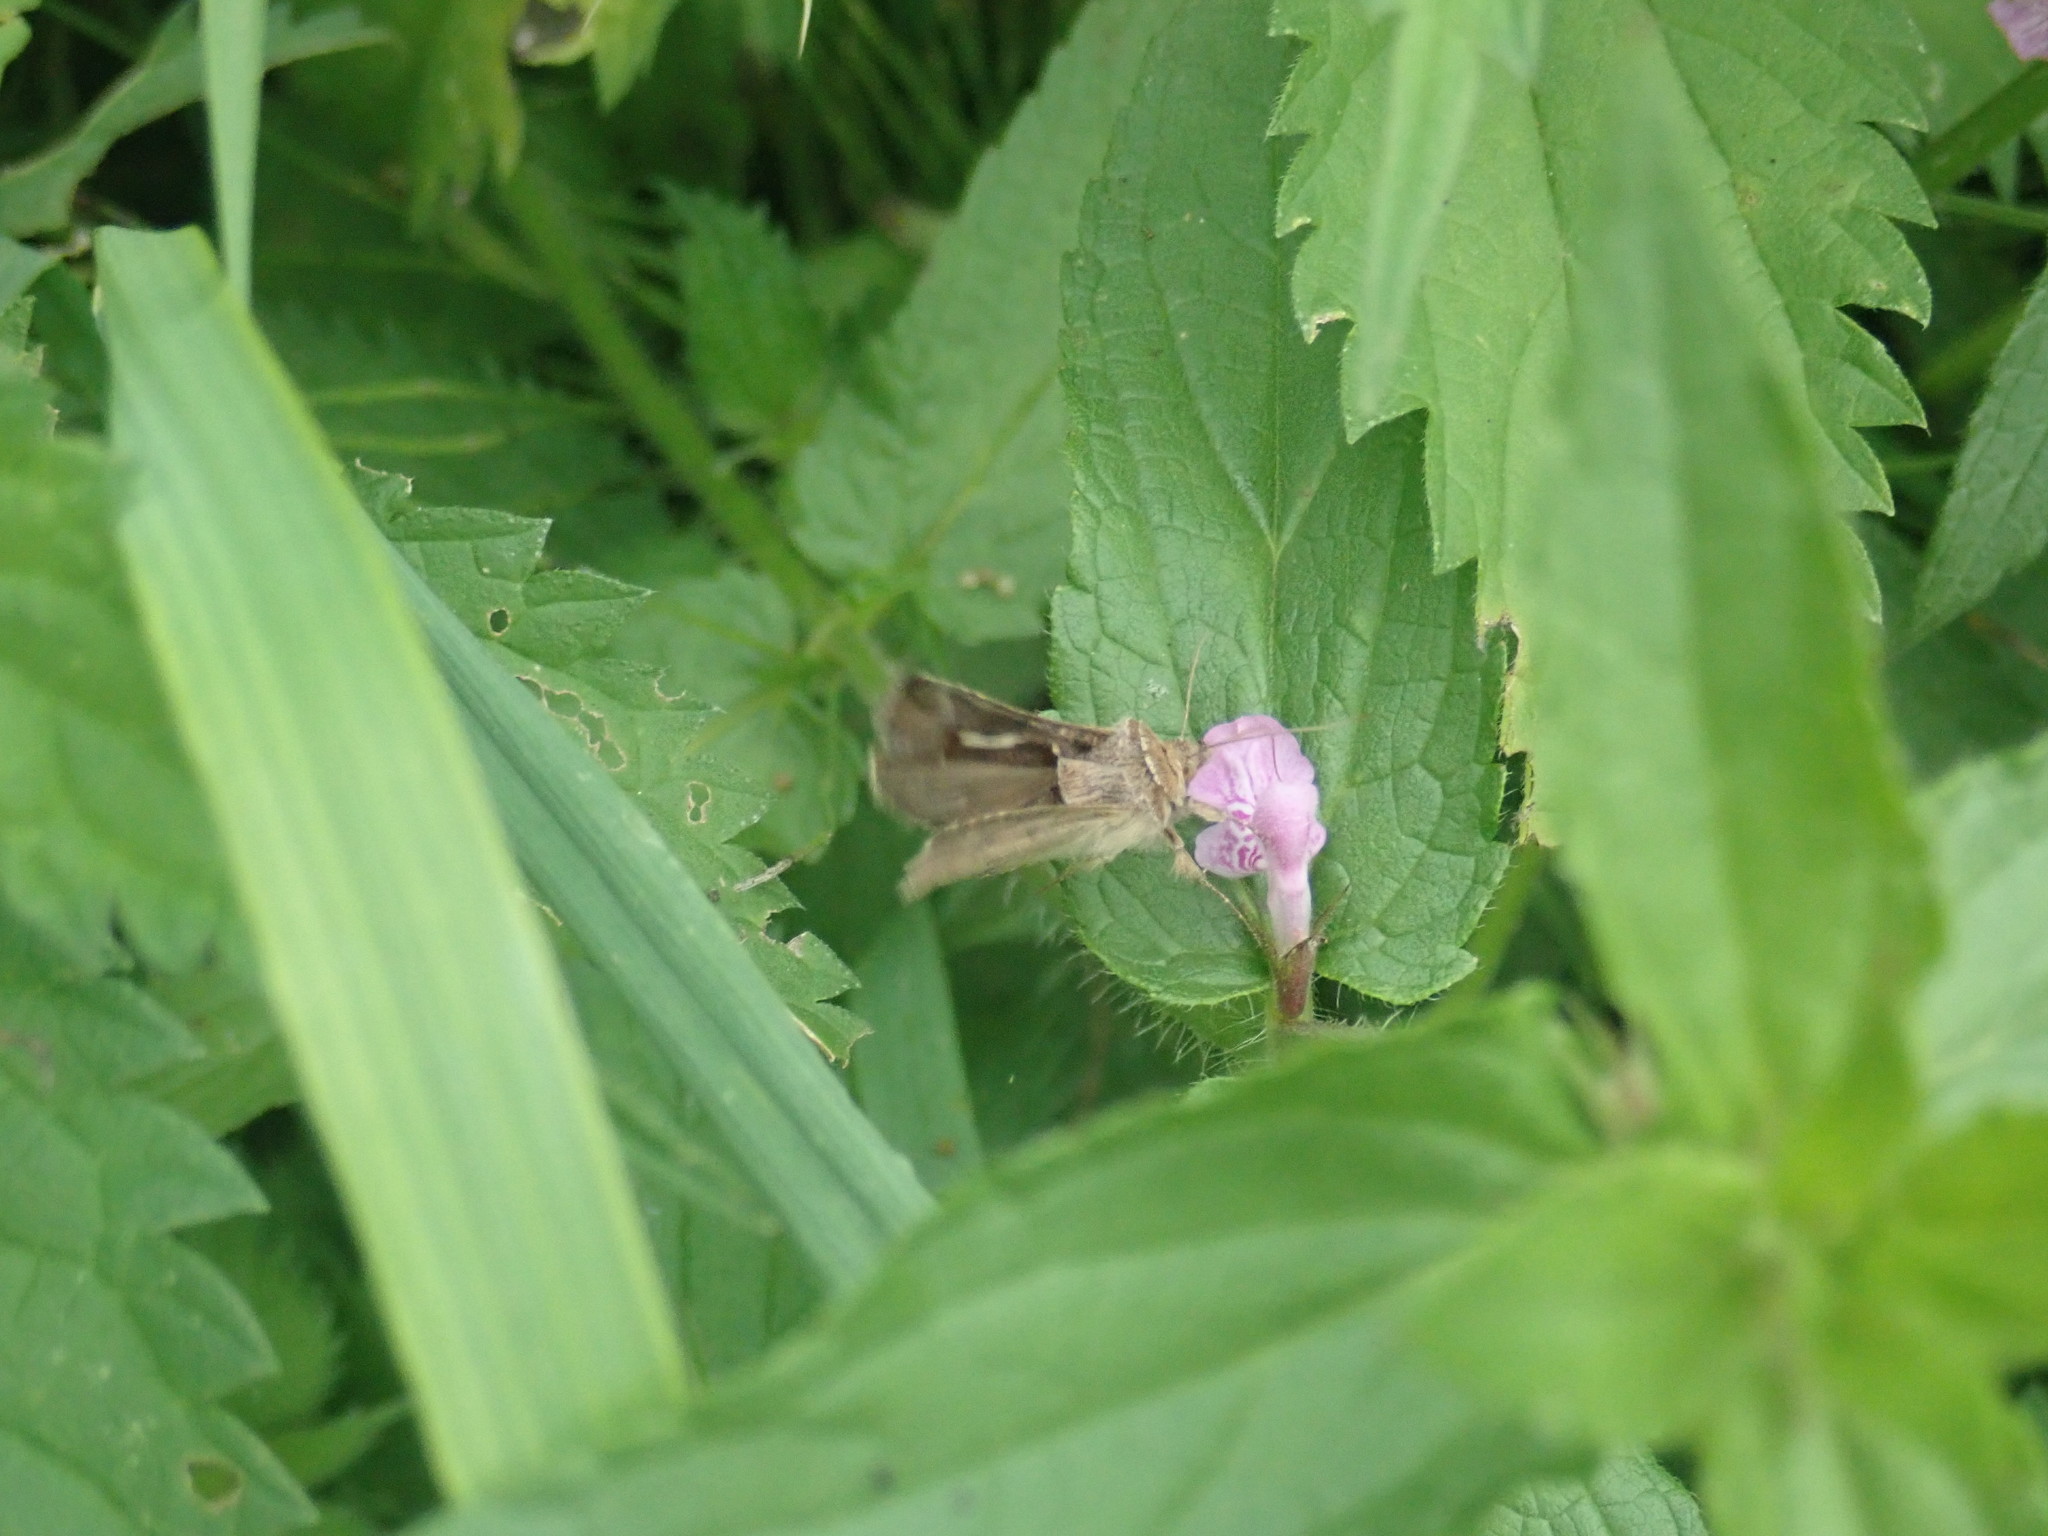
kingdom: Animalia
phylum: Arthropoda
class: Insecta
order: Lepidoptera
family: Noctuidae
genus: Macdunnoughia
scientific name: Macdunnoughia confusa
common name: Dewick's plusia
